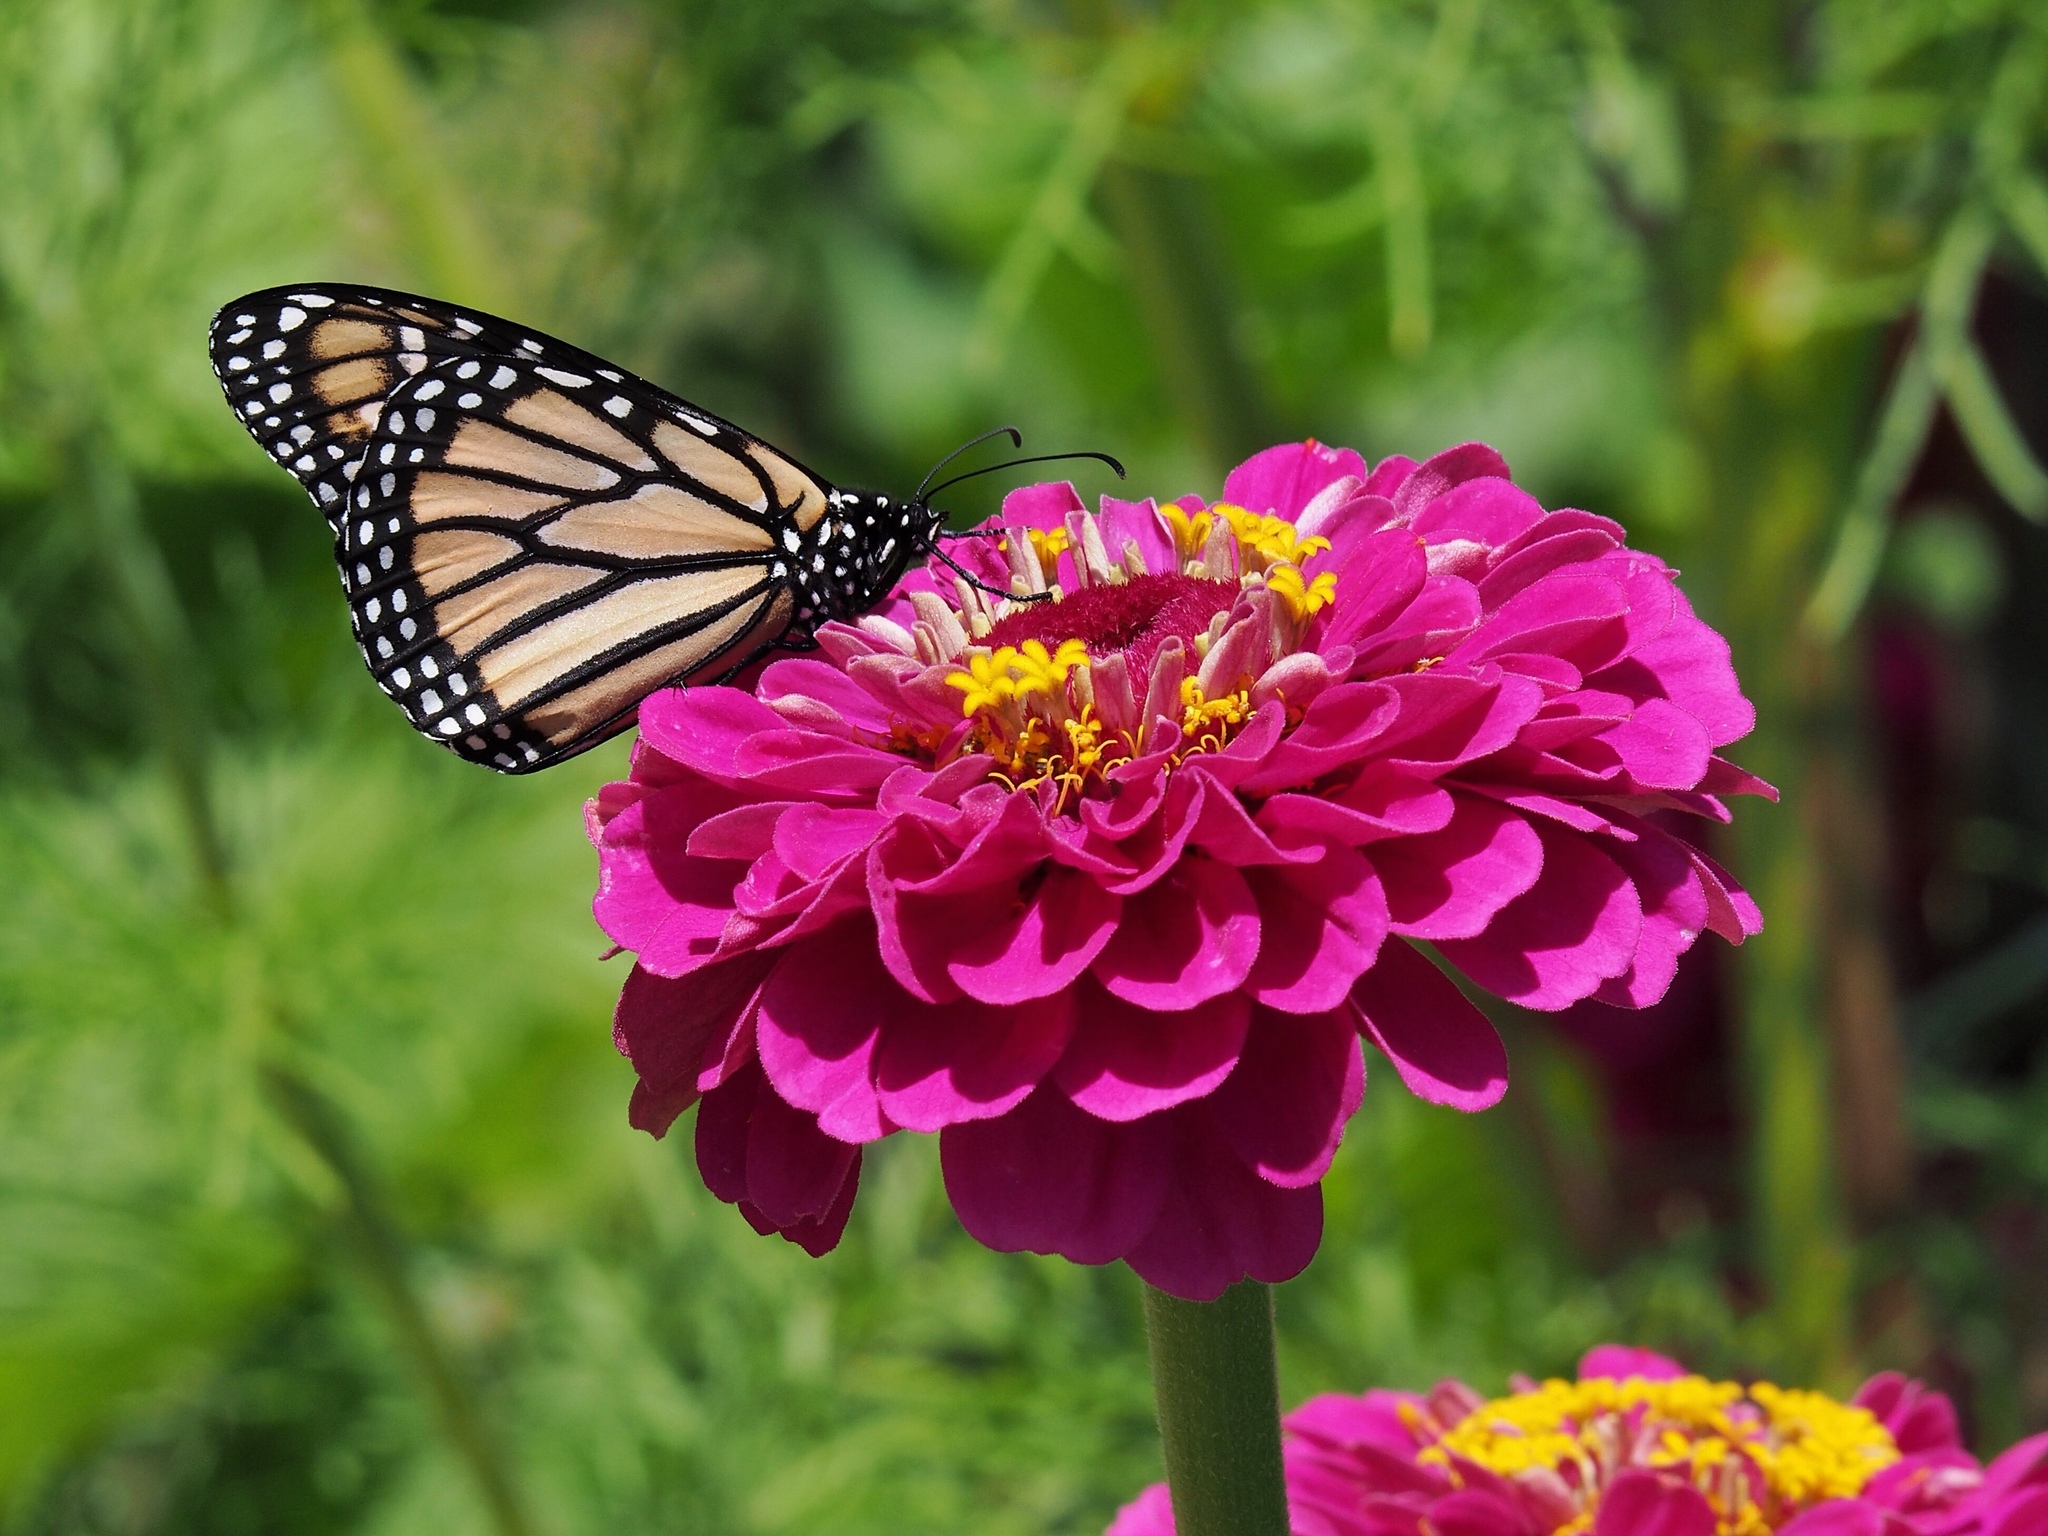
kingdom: Animalia
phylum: Arthropoda
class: Insecta
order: Lepidoptera
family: Nymphalidae
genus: Danaus
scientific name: Danaus plexippus
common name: Monarch
